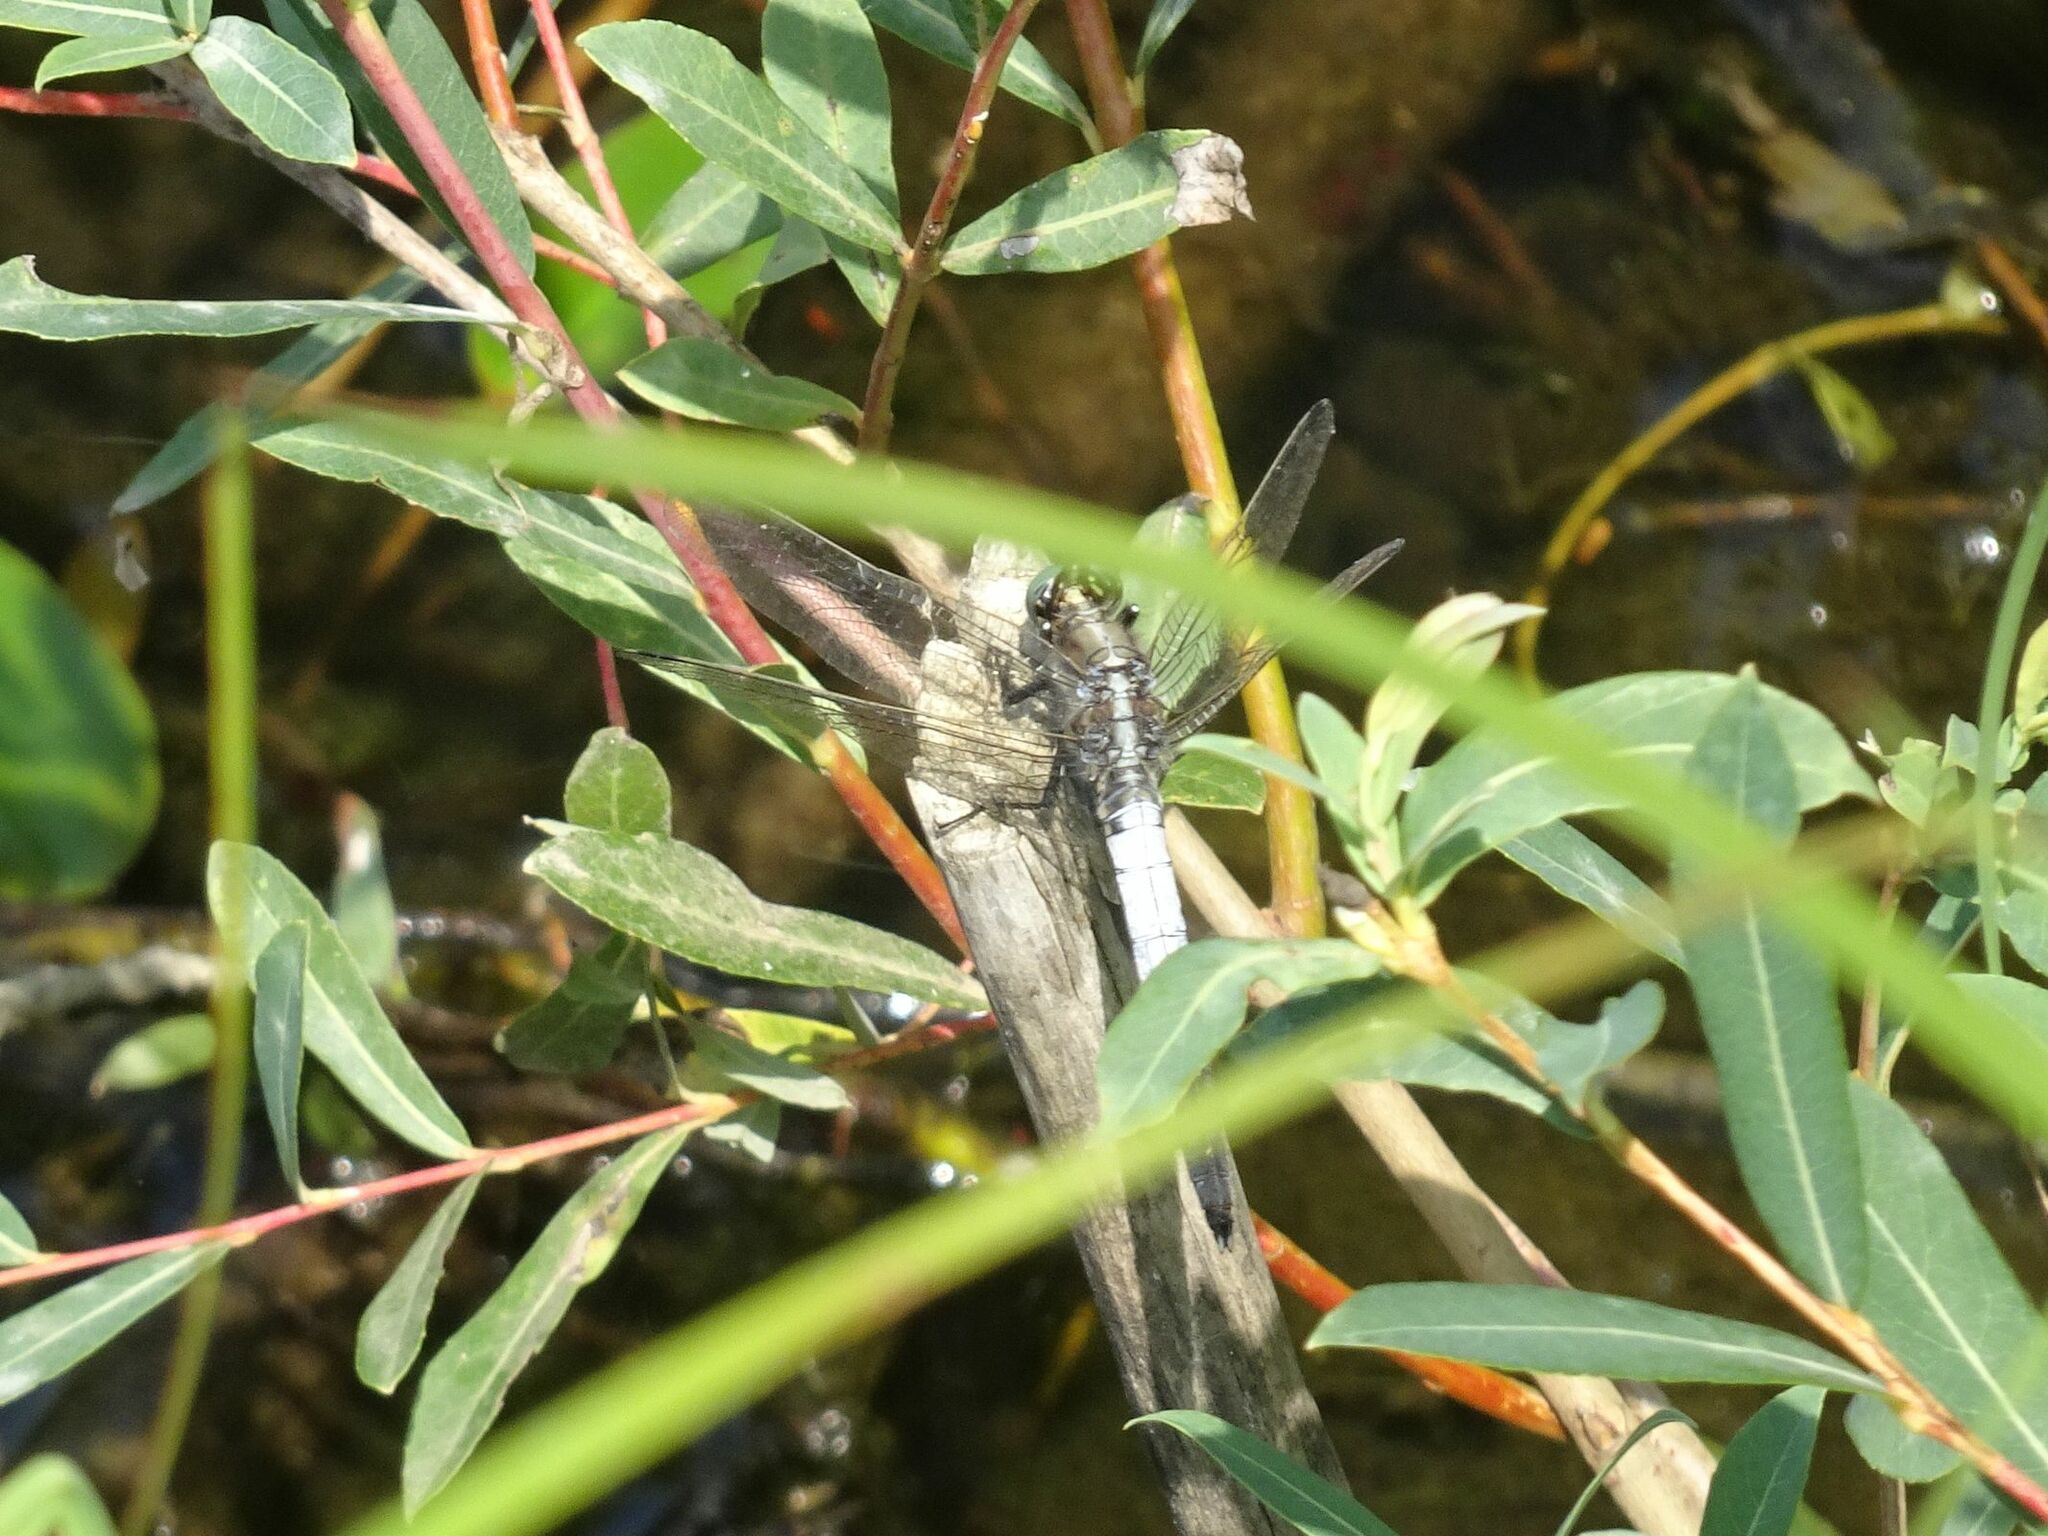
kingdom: Animalia
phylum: Arthropoda
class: Insecta
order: Odonata
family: Libellulidae
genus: Orthetrum
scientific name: Orthetrum albistylum
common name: White-tailed skimmer
